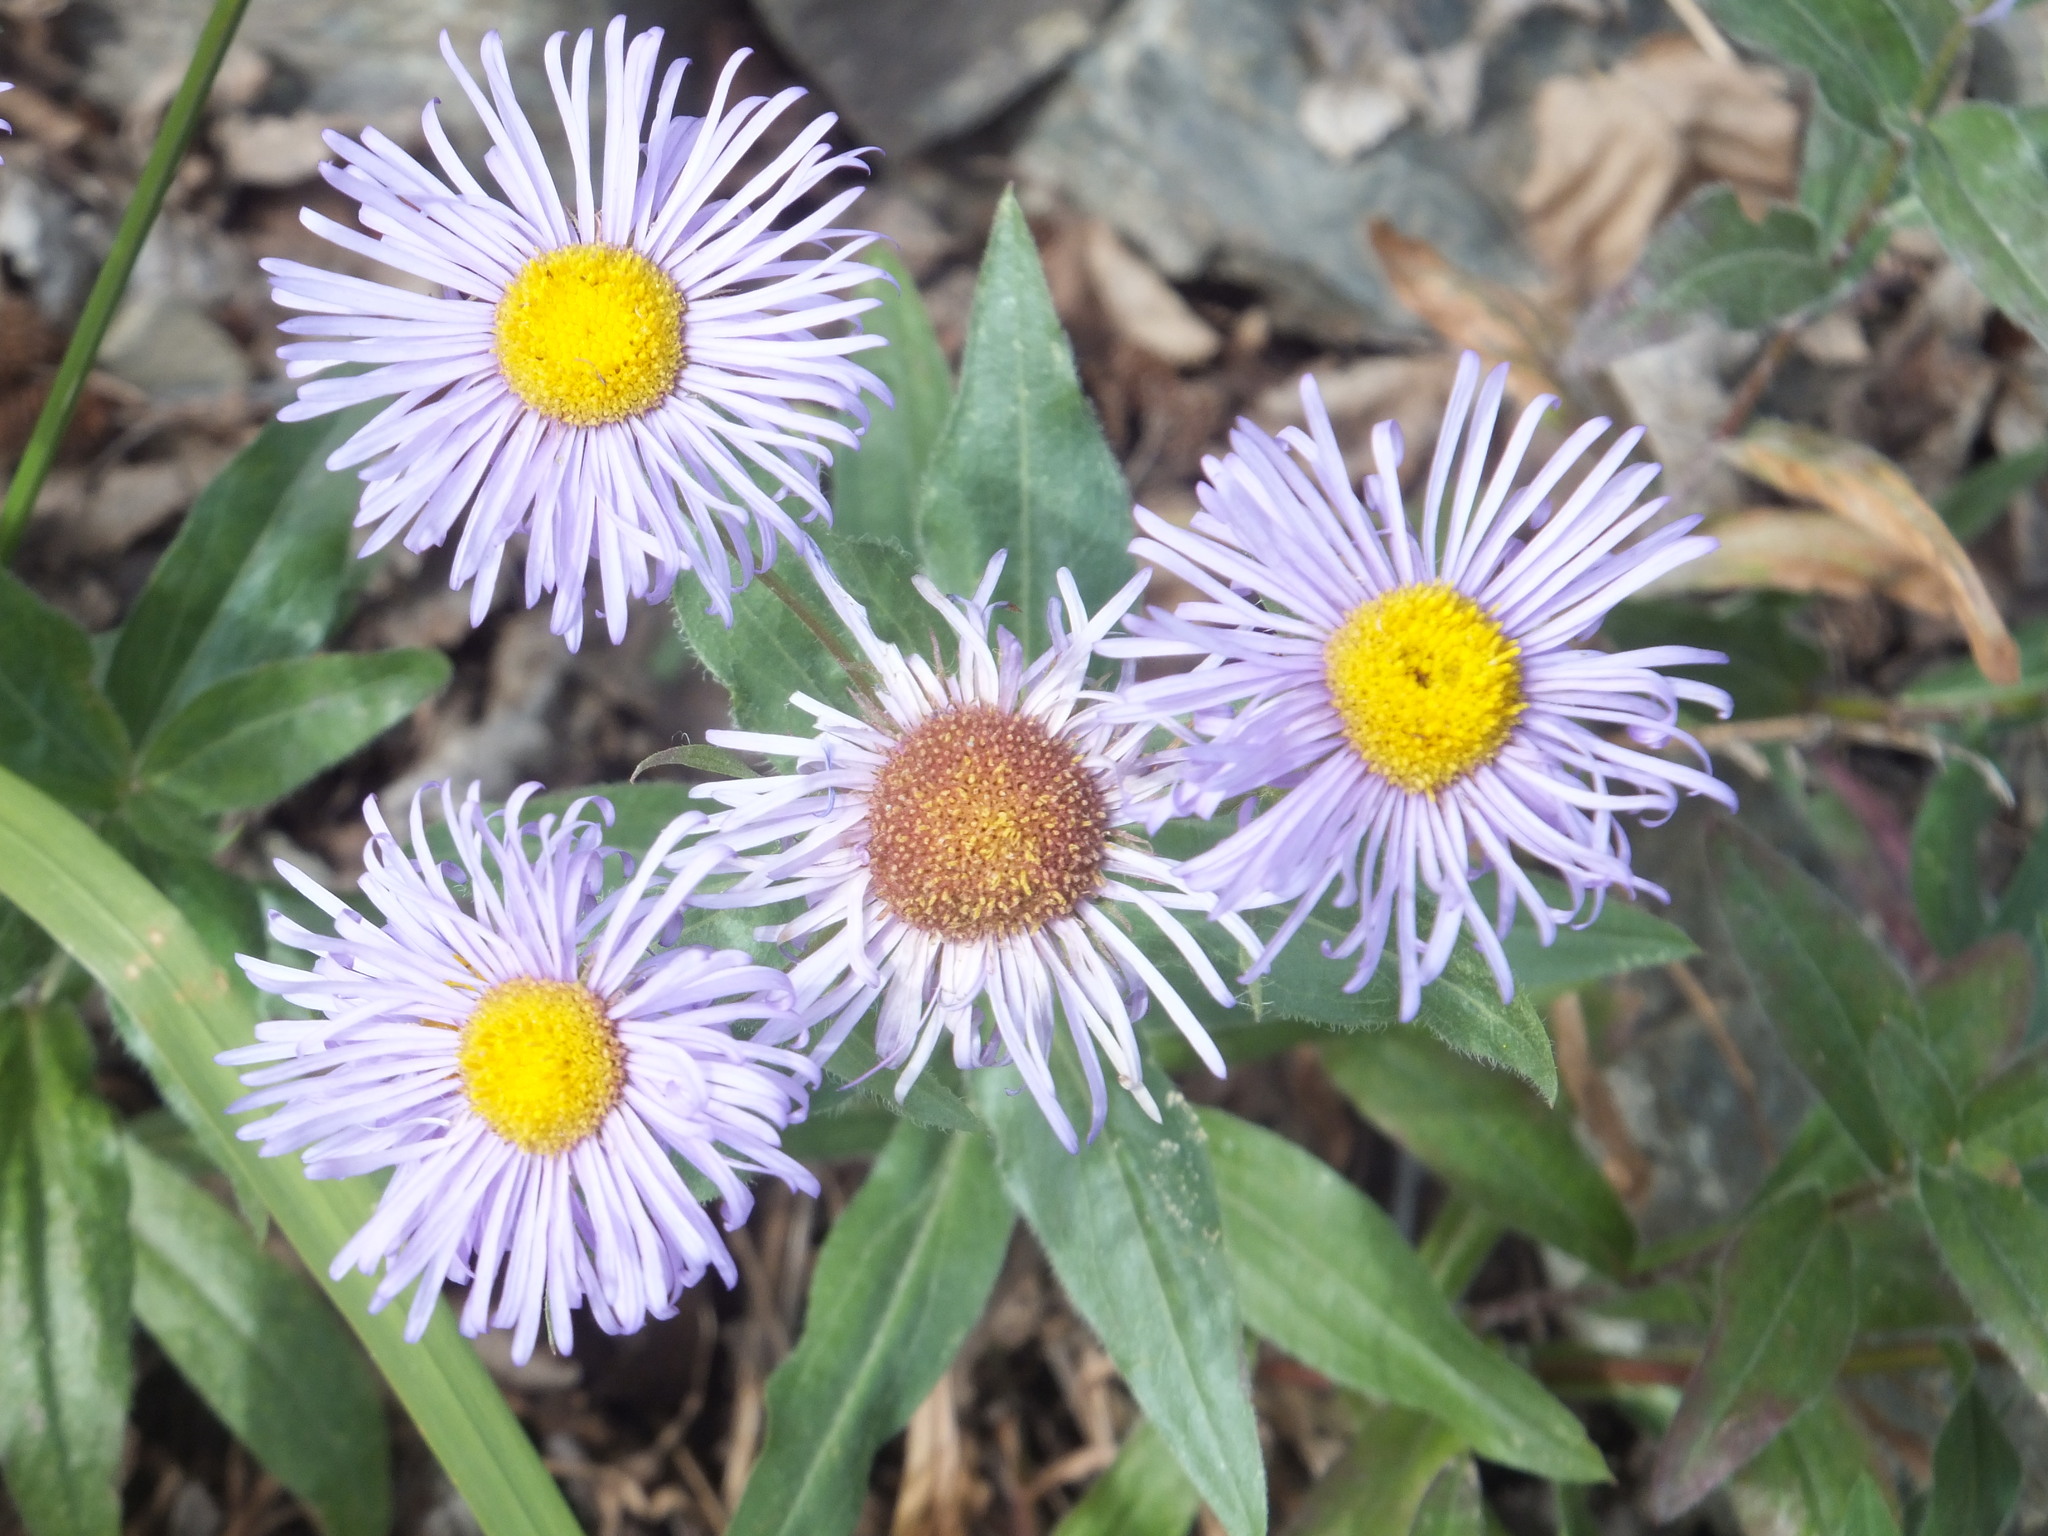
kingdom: Plantae
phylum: Tracheophyta
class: Magnoliopsida
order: Asterales
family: Asteraceae
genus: Erigeron
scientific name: Erigeron speciosus
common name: Aspen fleabane
